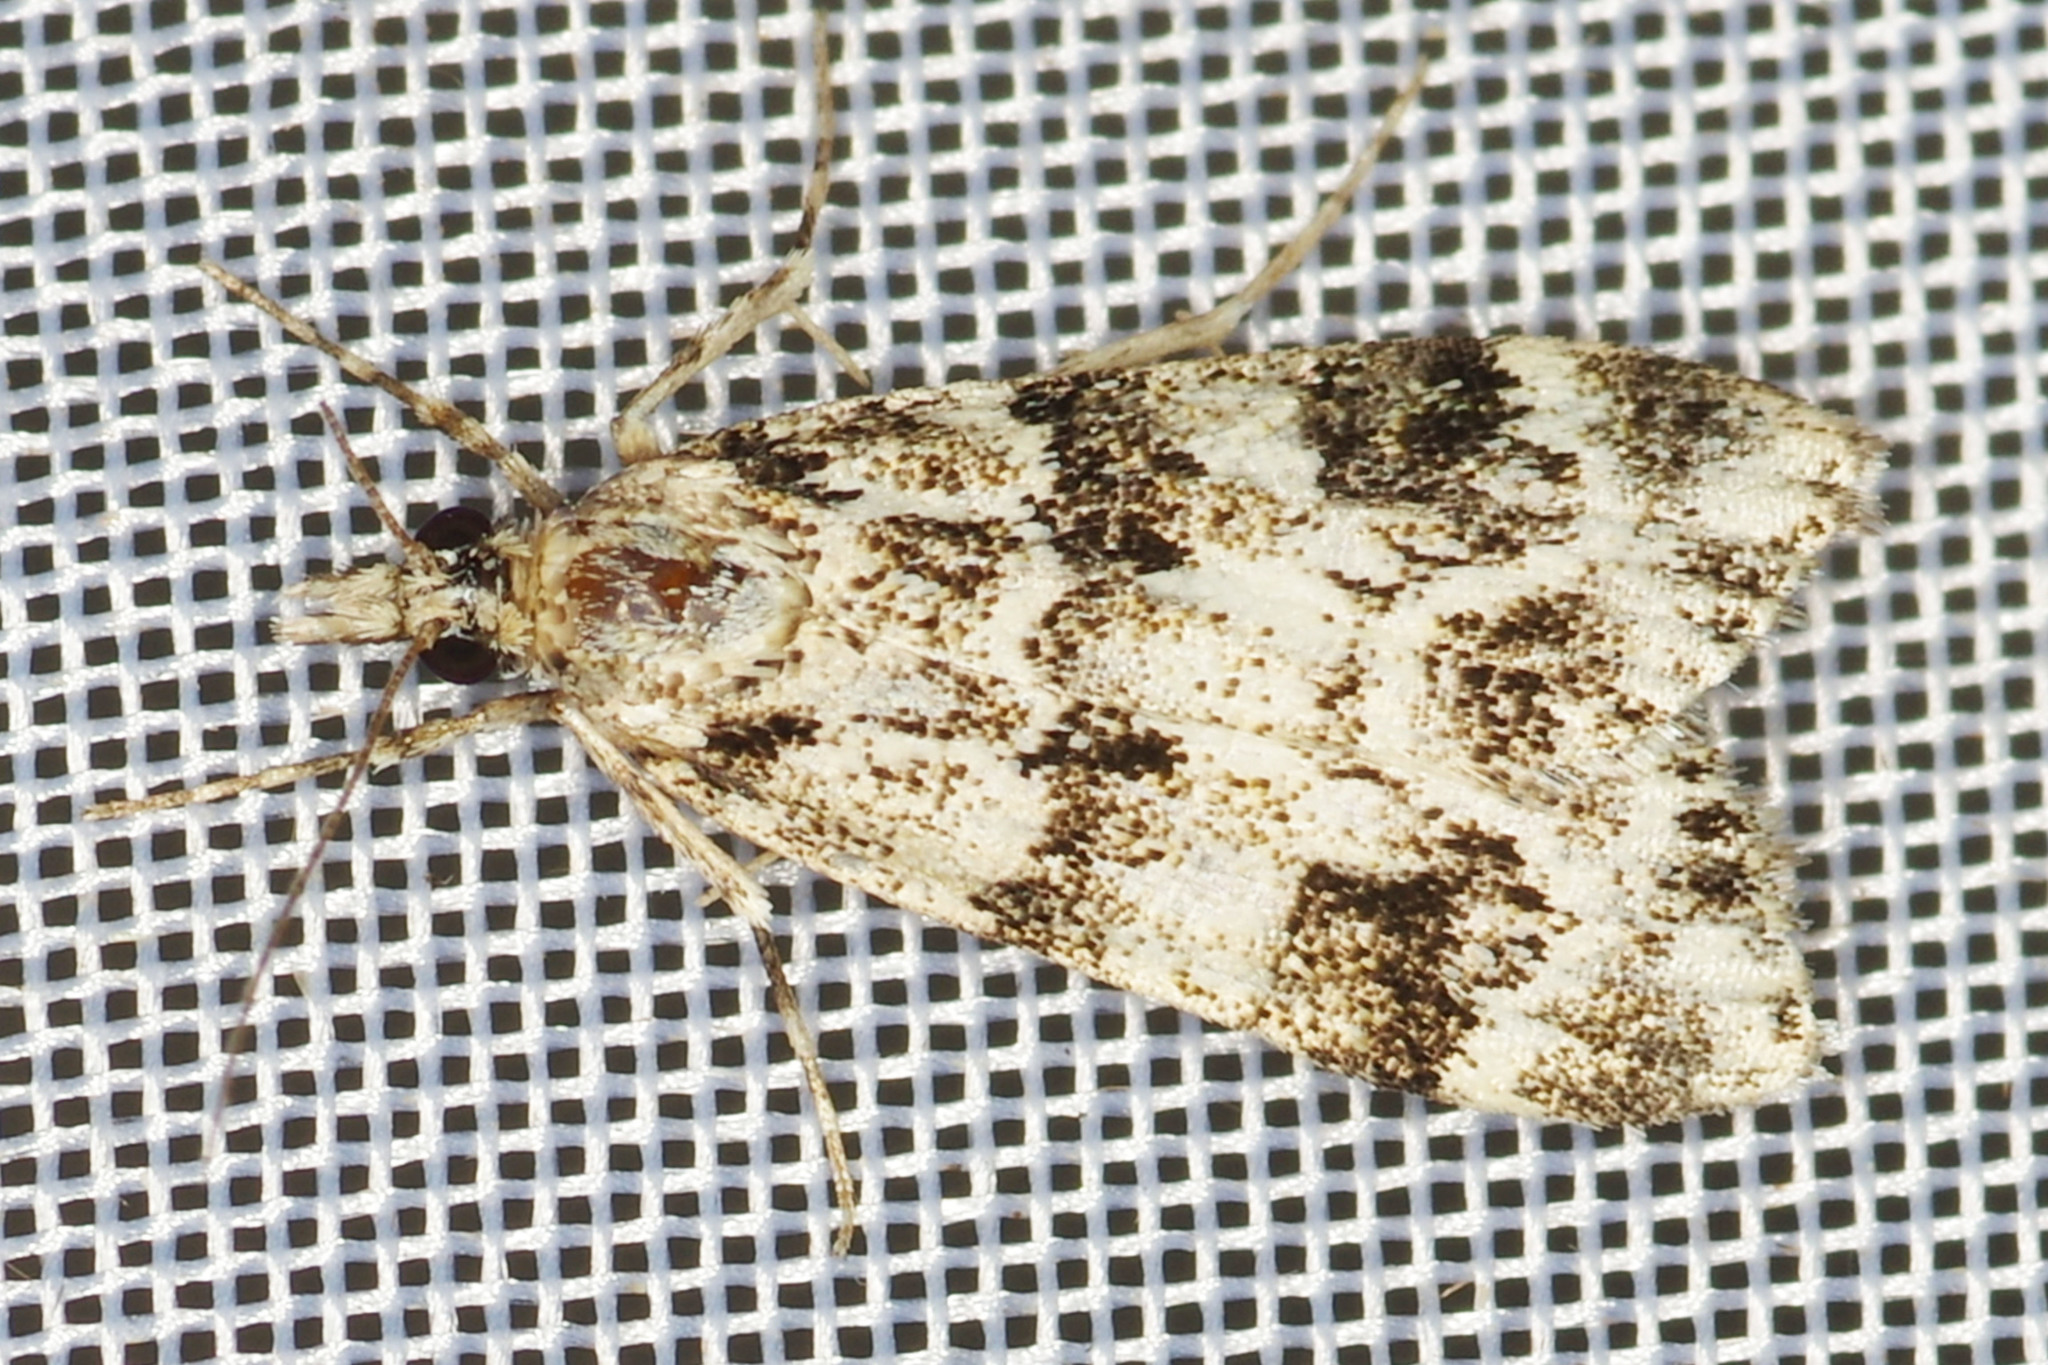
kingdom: Animalia
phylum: Arthropoda
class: Insecta
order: Lepidoptera
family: Crambidae
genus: Eudonia
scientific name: Eudonia delunella
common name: Pied grey
